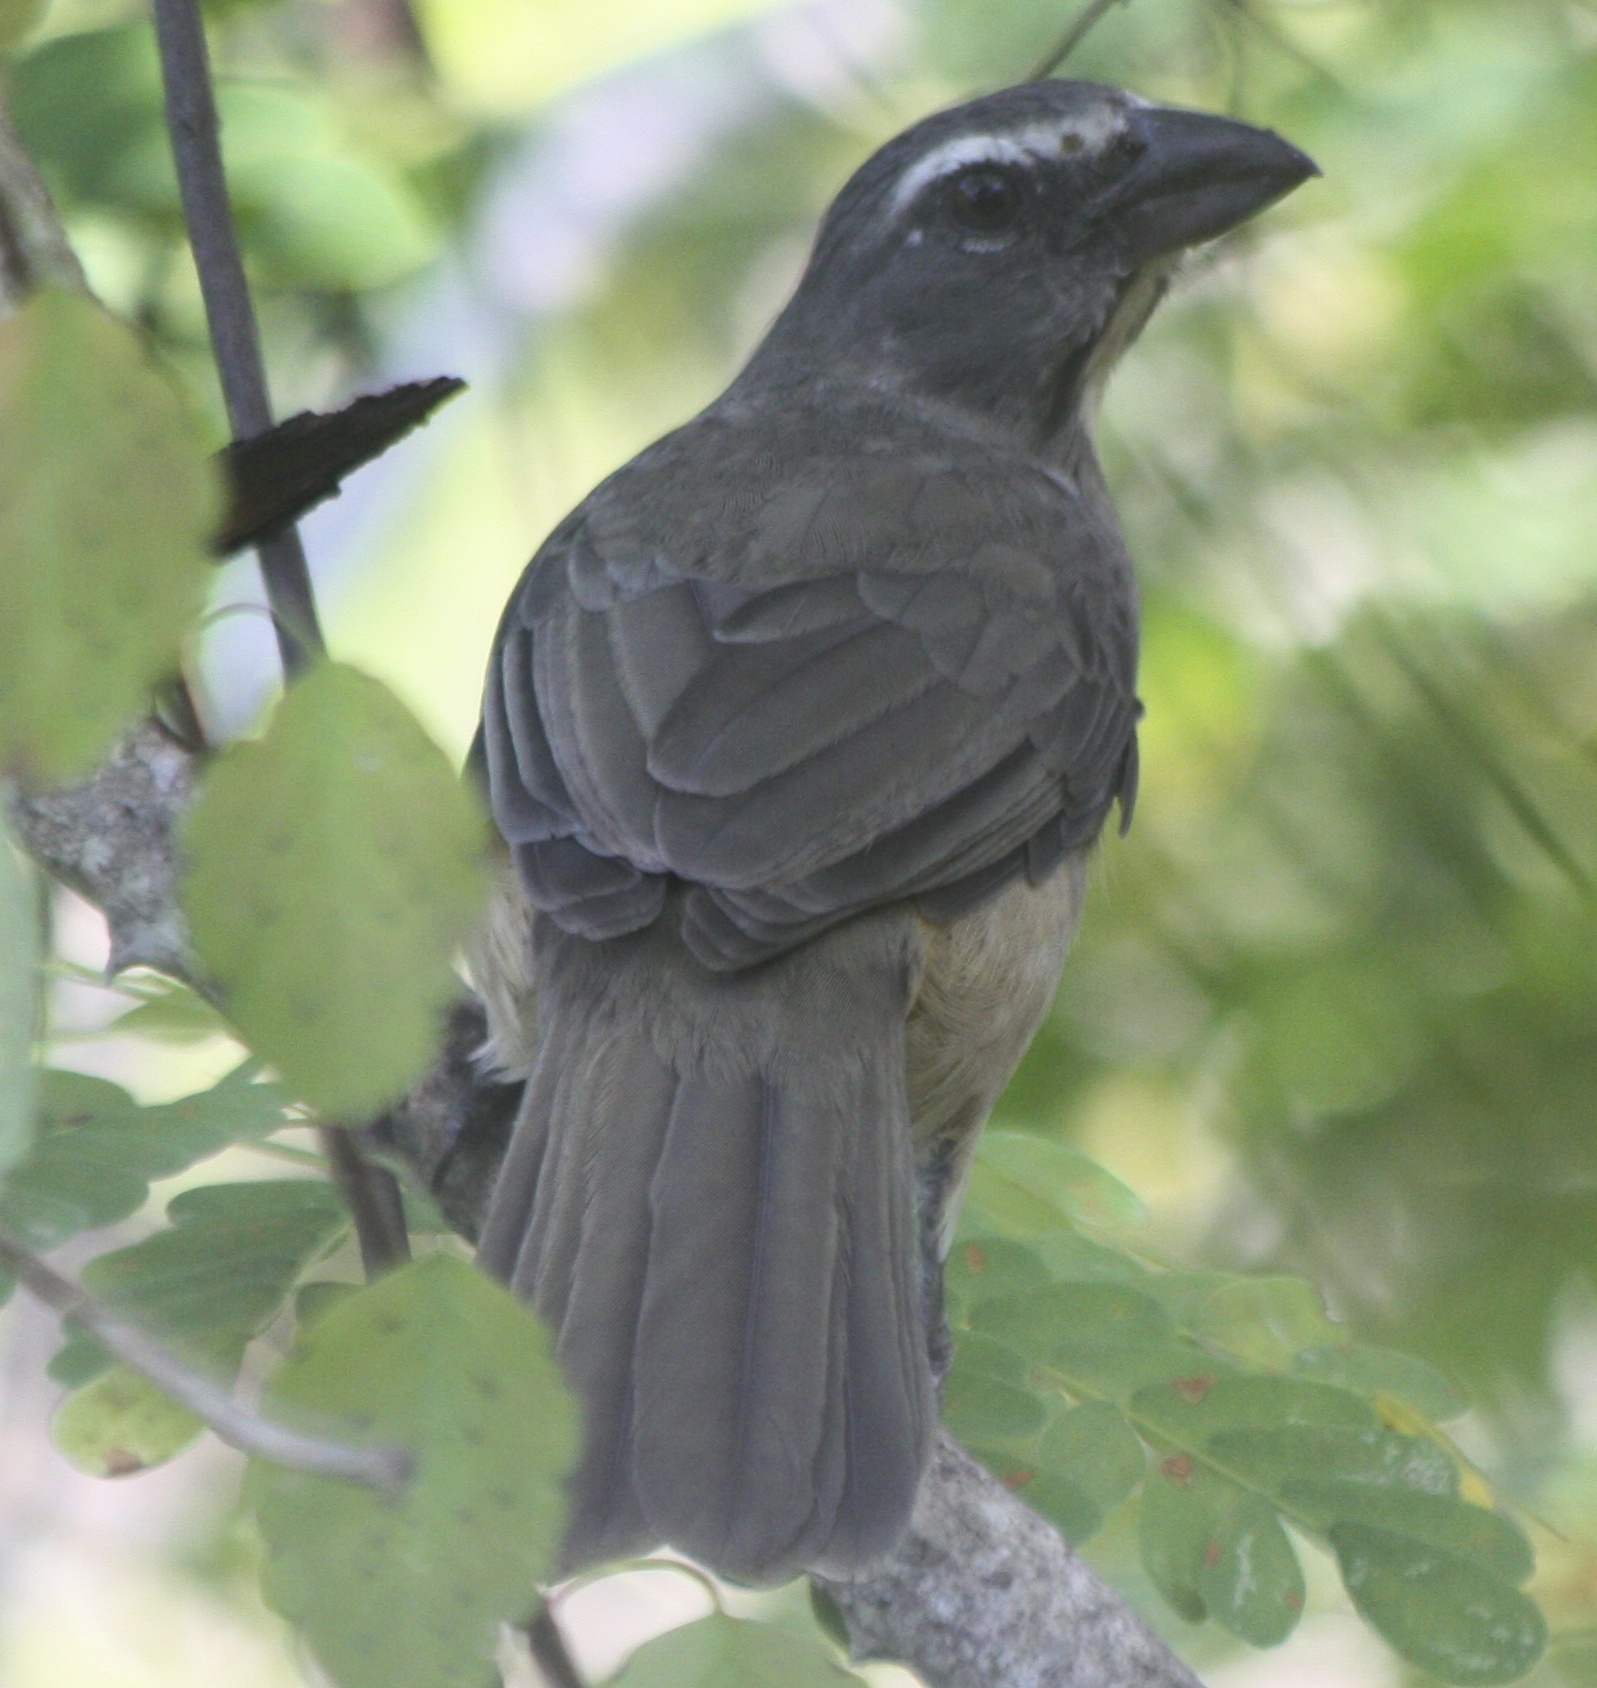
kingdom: Animalia
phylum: Chordata
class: Aves
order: Passeriformes
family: Thraupidae
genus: Saltator
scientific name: Saltator grandis
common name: Cinnamon-bellied saltator
